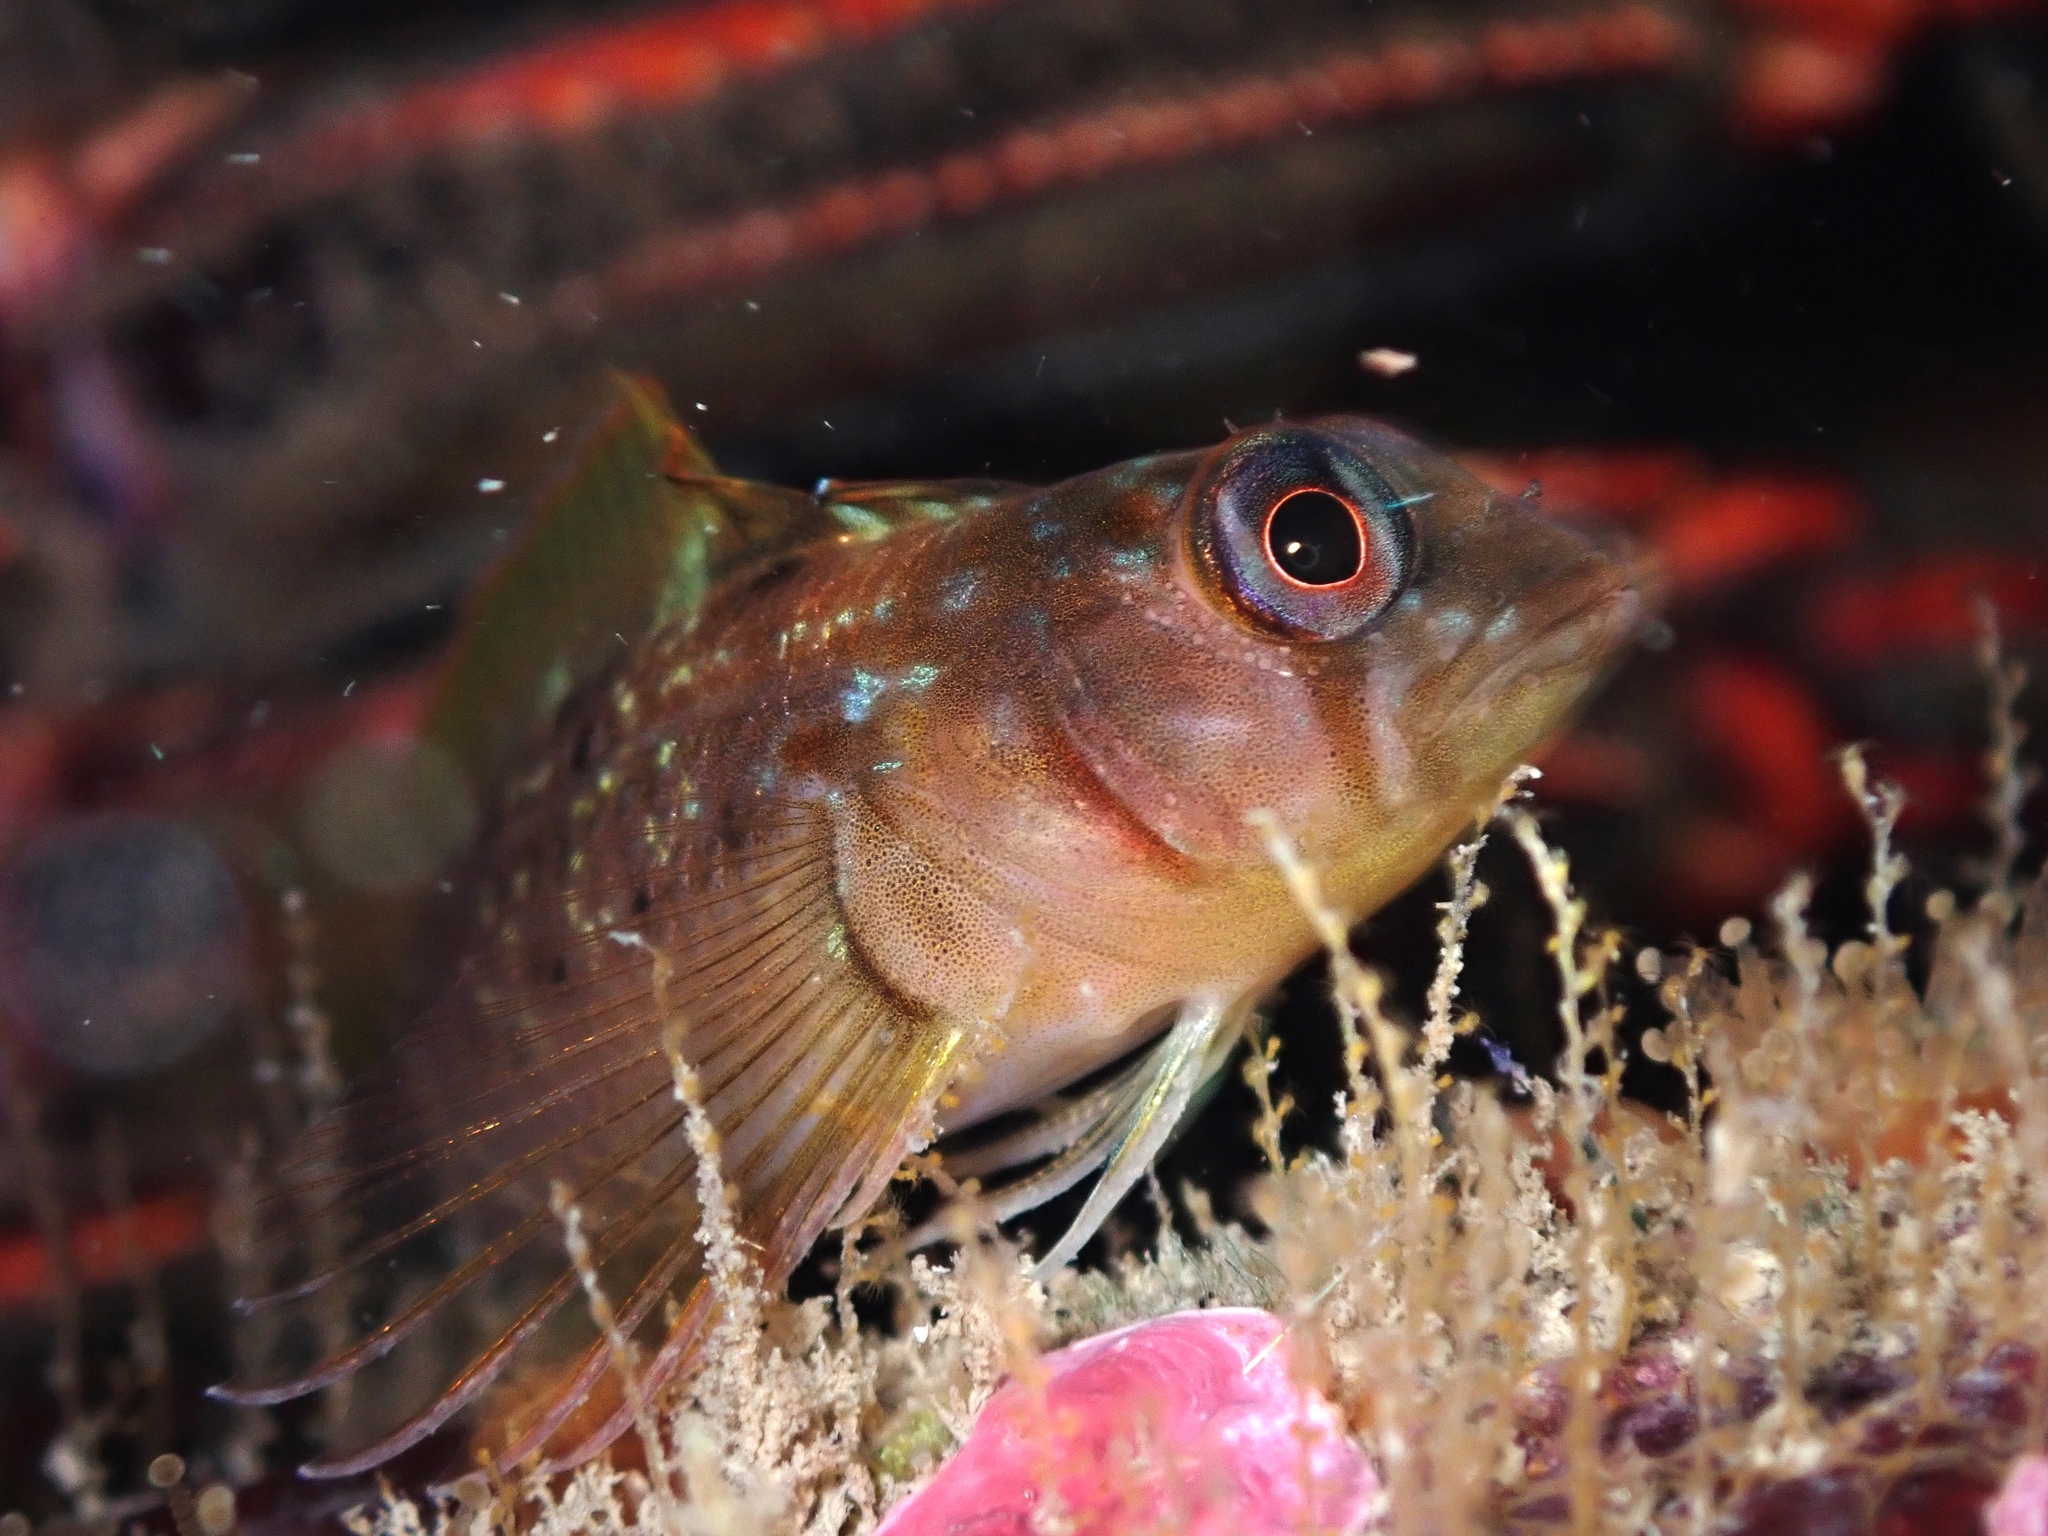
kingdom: Animalia
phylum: Chordata
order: Perciformes
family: Tripterygiidae
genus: Notoclinops
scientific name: Notoclinops yaldwyni
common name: Yaldwyn's triplefin
